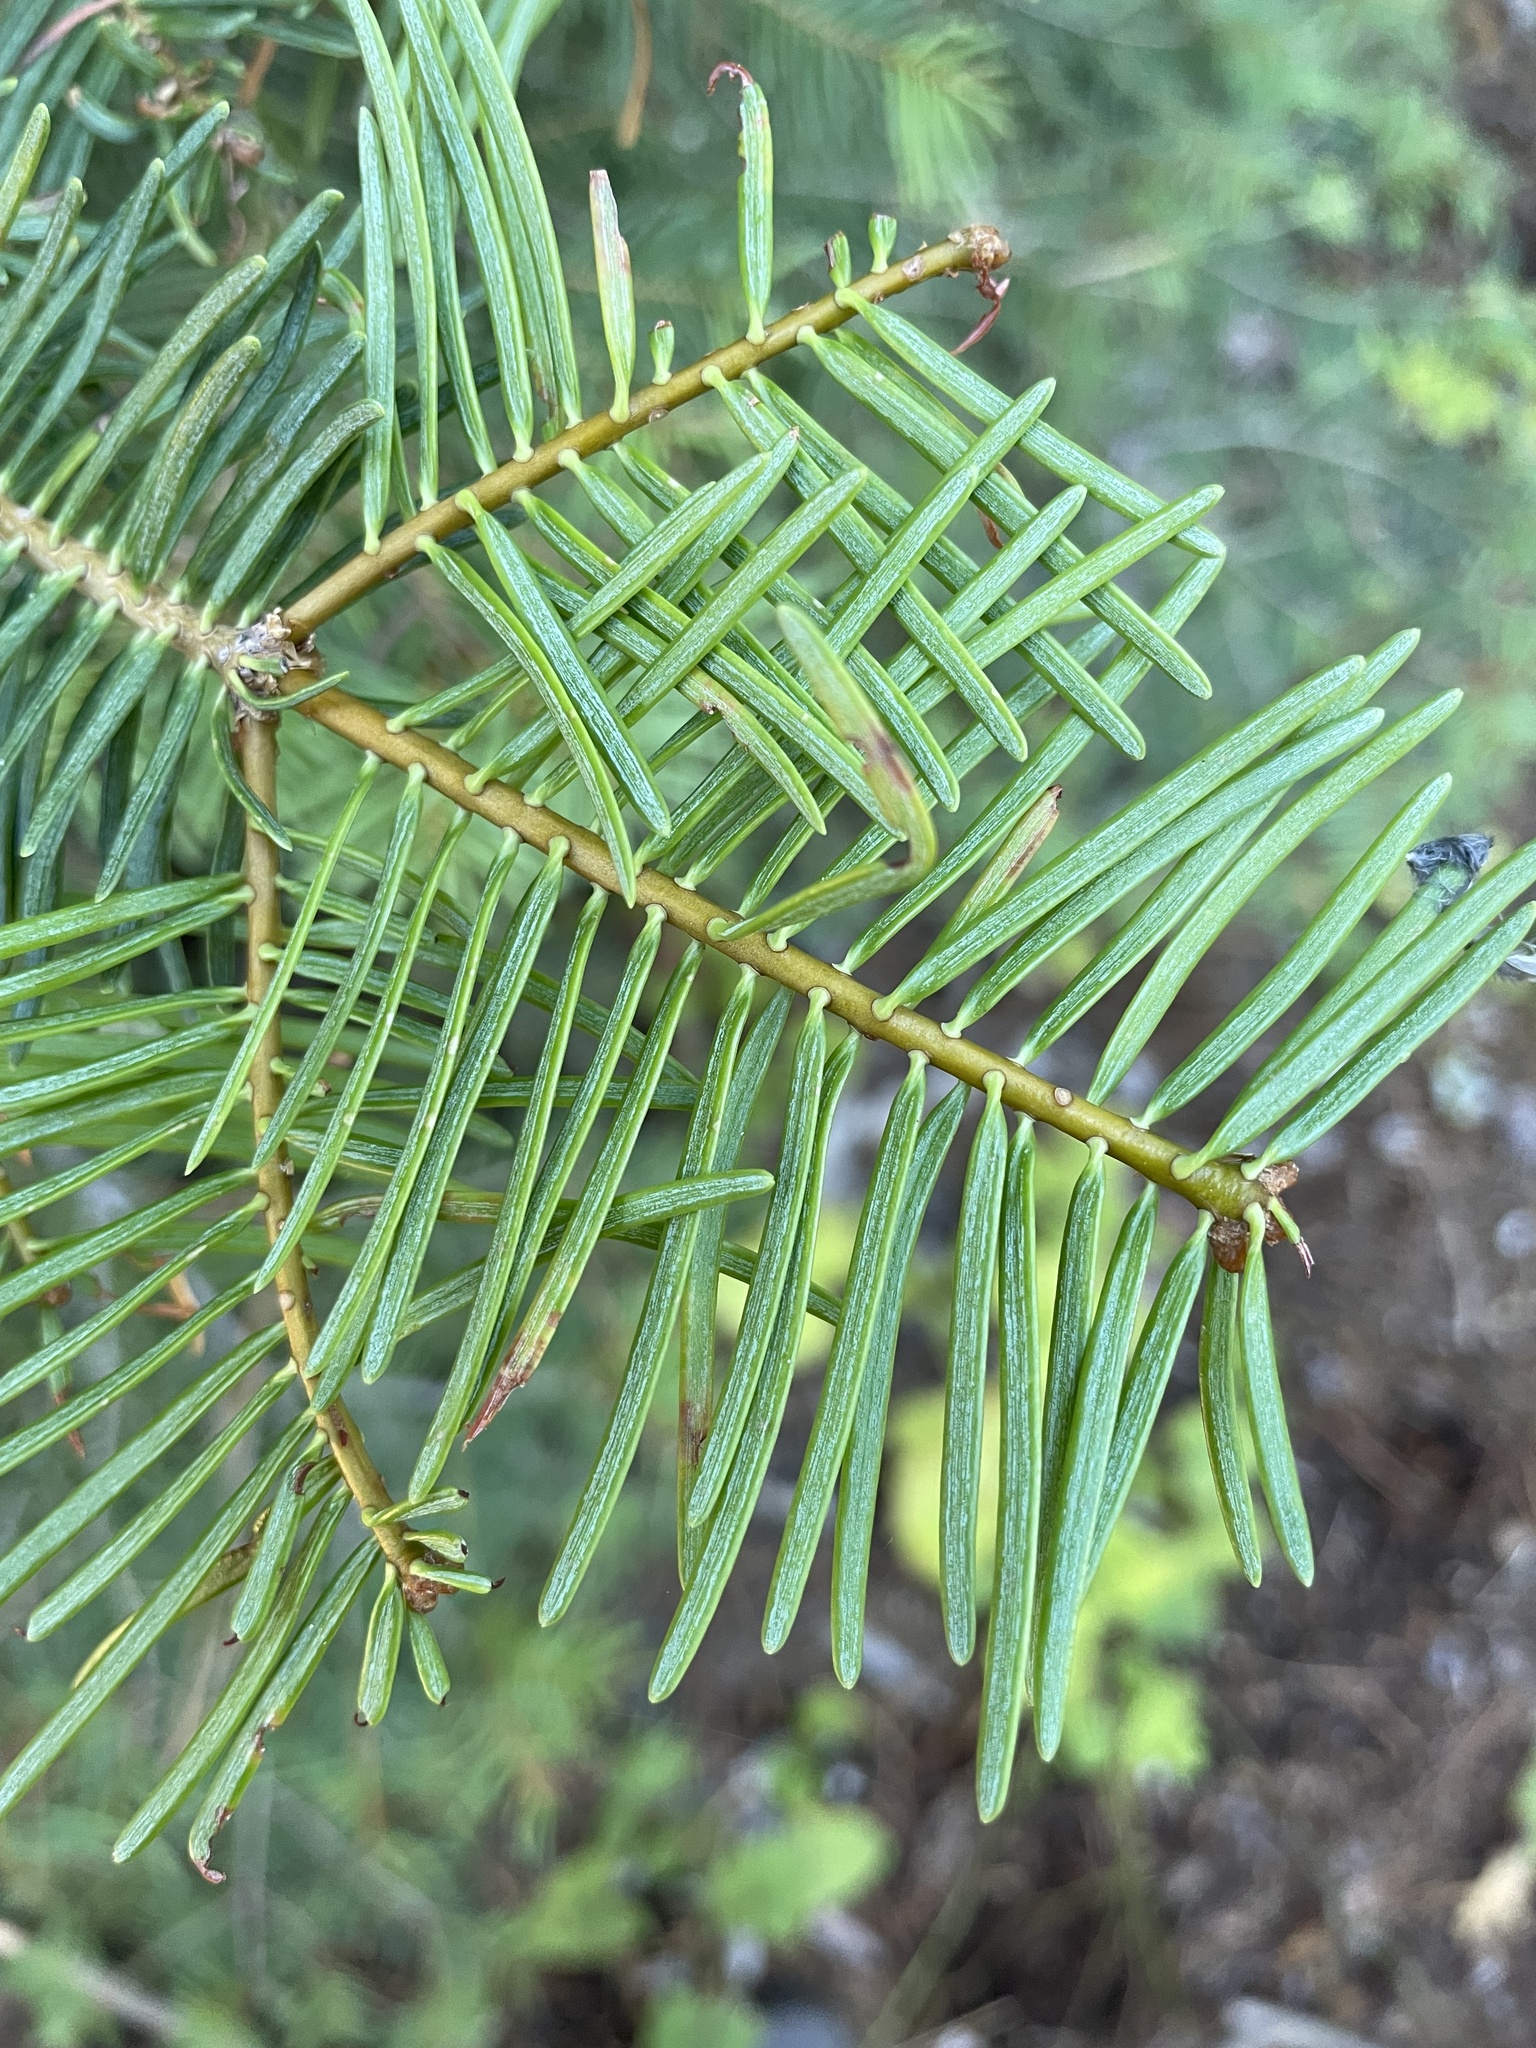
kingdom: Plantae
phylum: Tracheophyta
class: Pinopsida
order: Pinales
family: Pinaceae
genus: Abies
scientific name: Abies concolor
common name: Colorado fir
